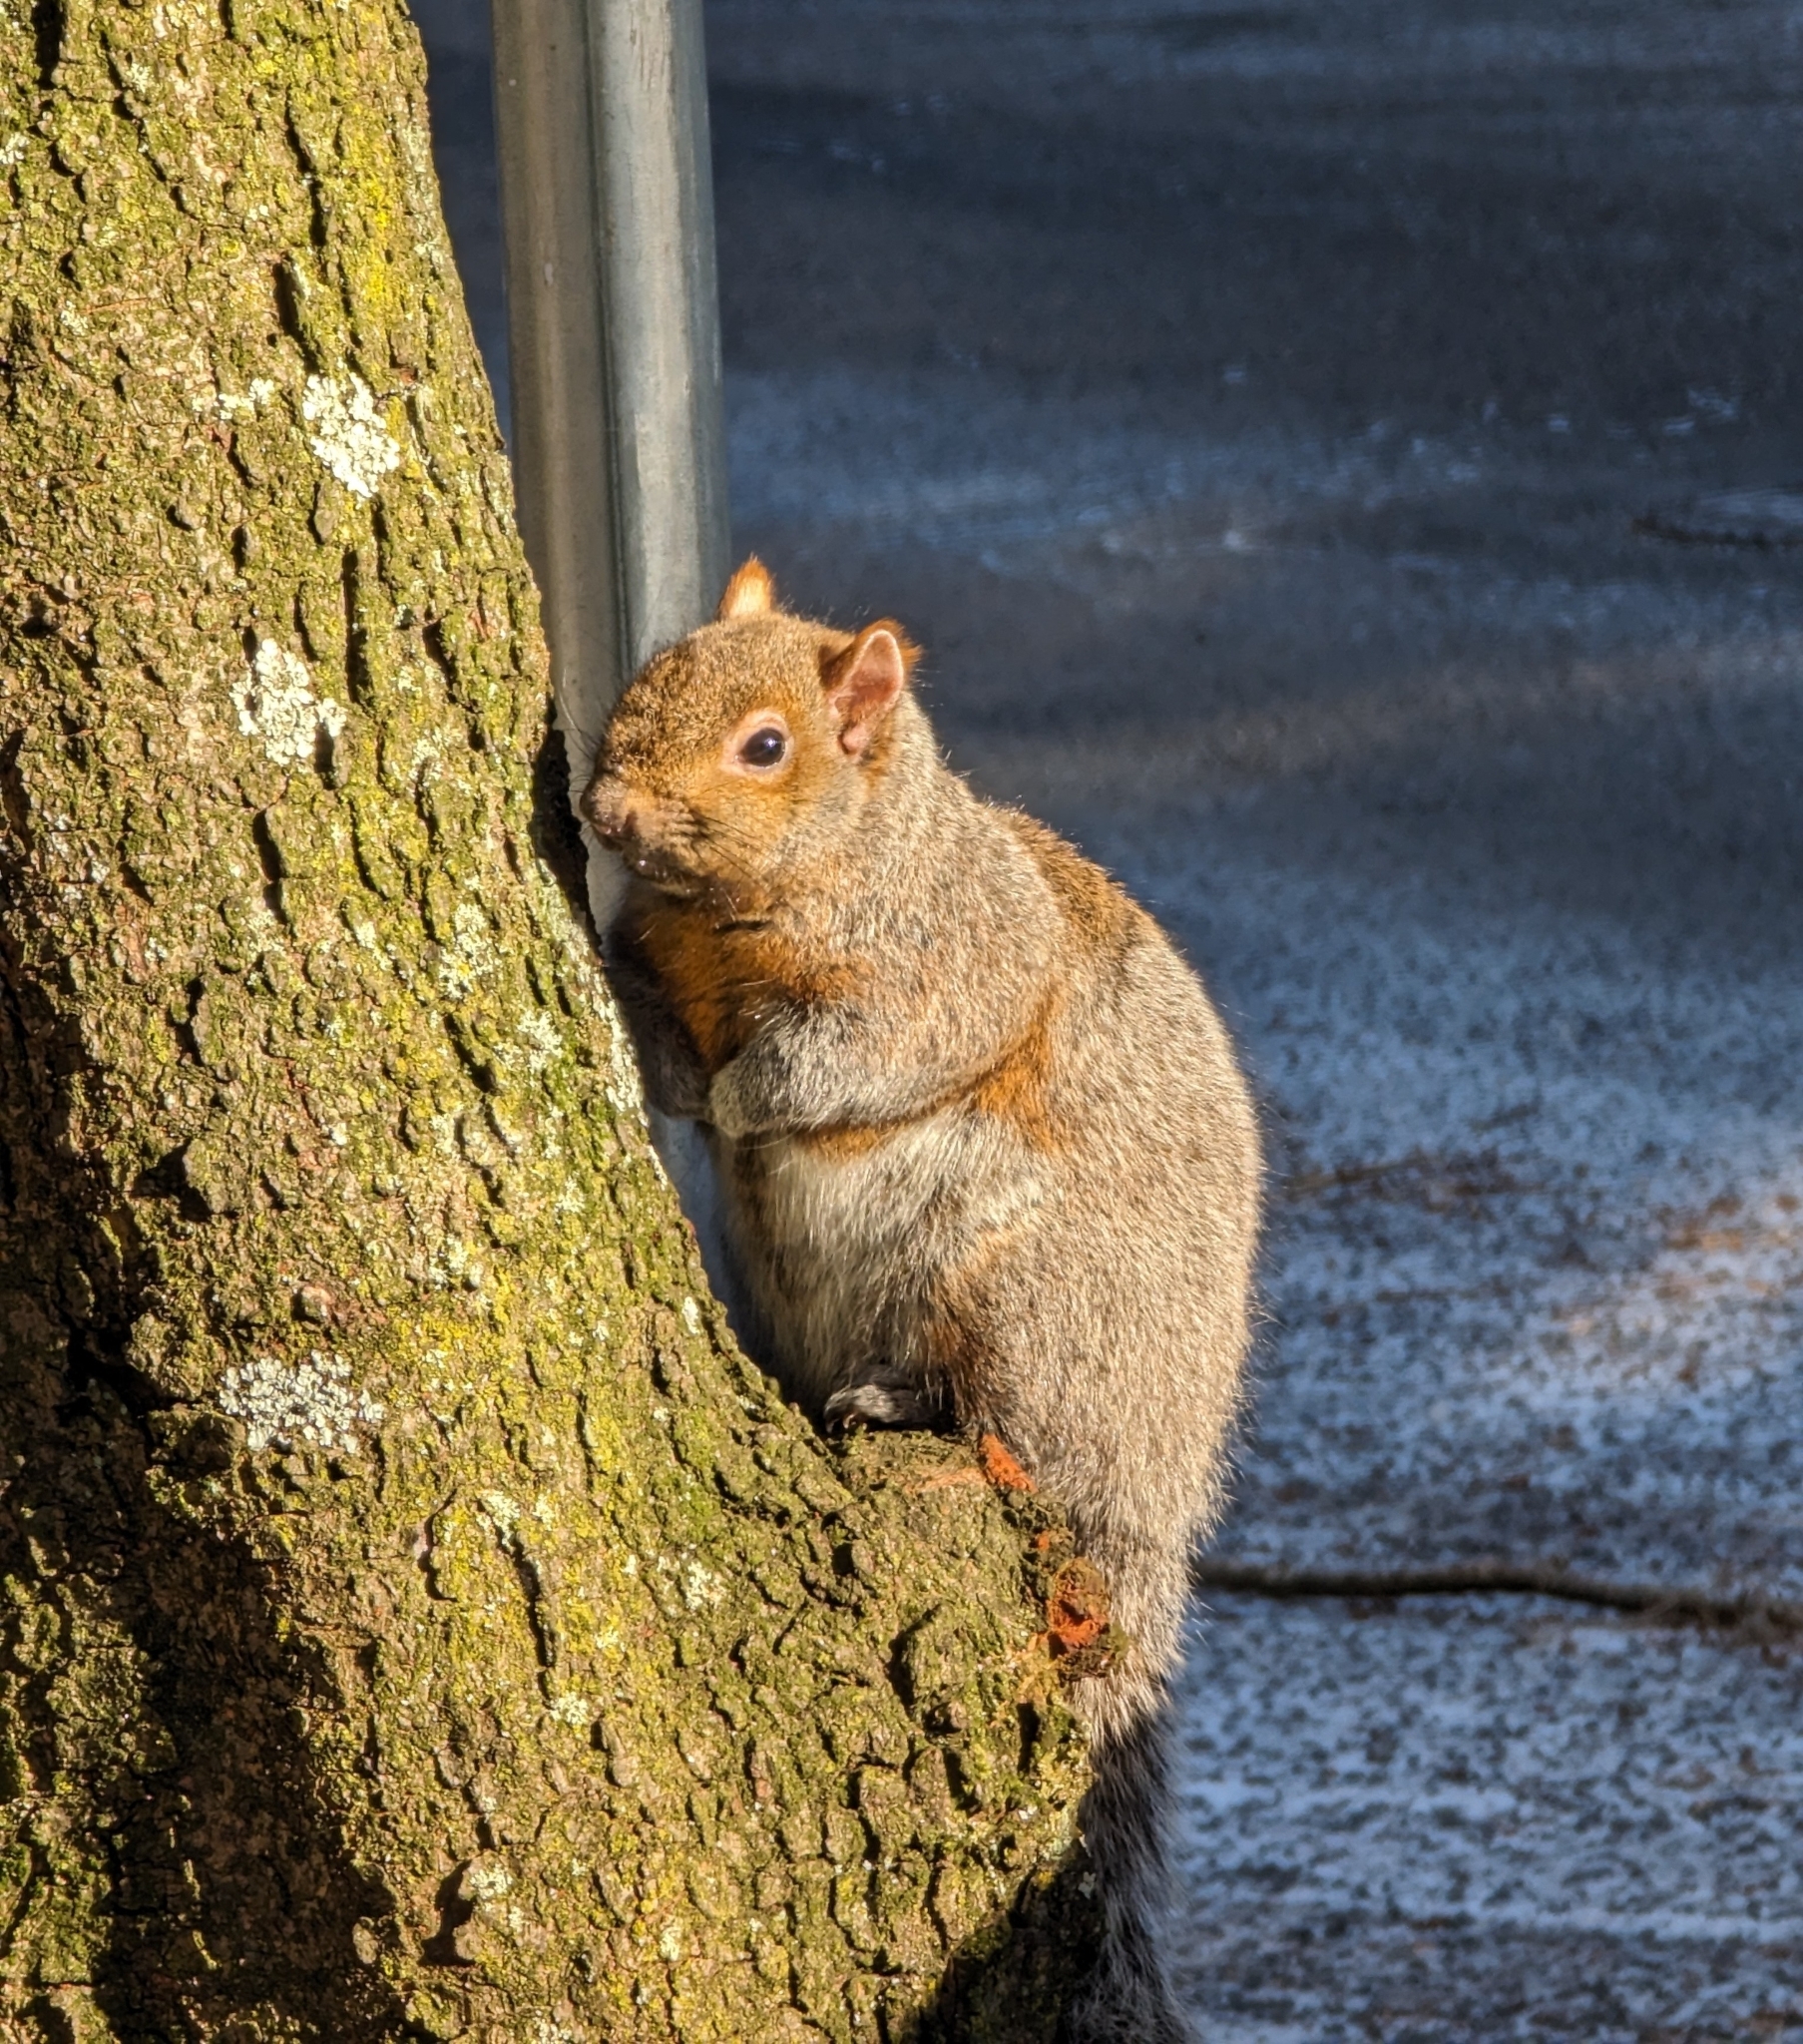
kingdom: Animalia
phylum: Chordata
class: Mammalia
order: Rodentia
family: Sciuridae
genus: Sciurus
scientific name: Sciurus carolinensis
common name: Eastern gray squirrel
